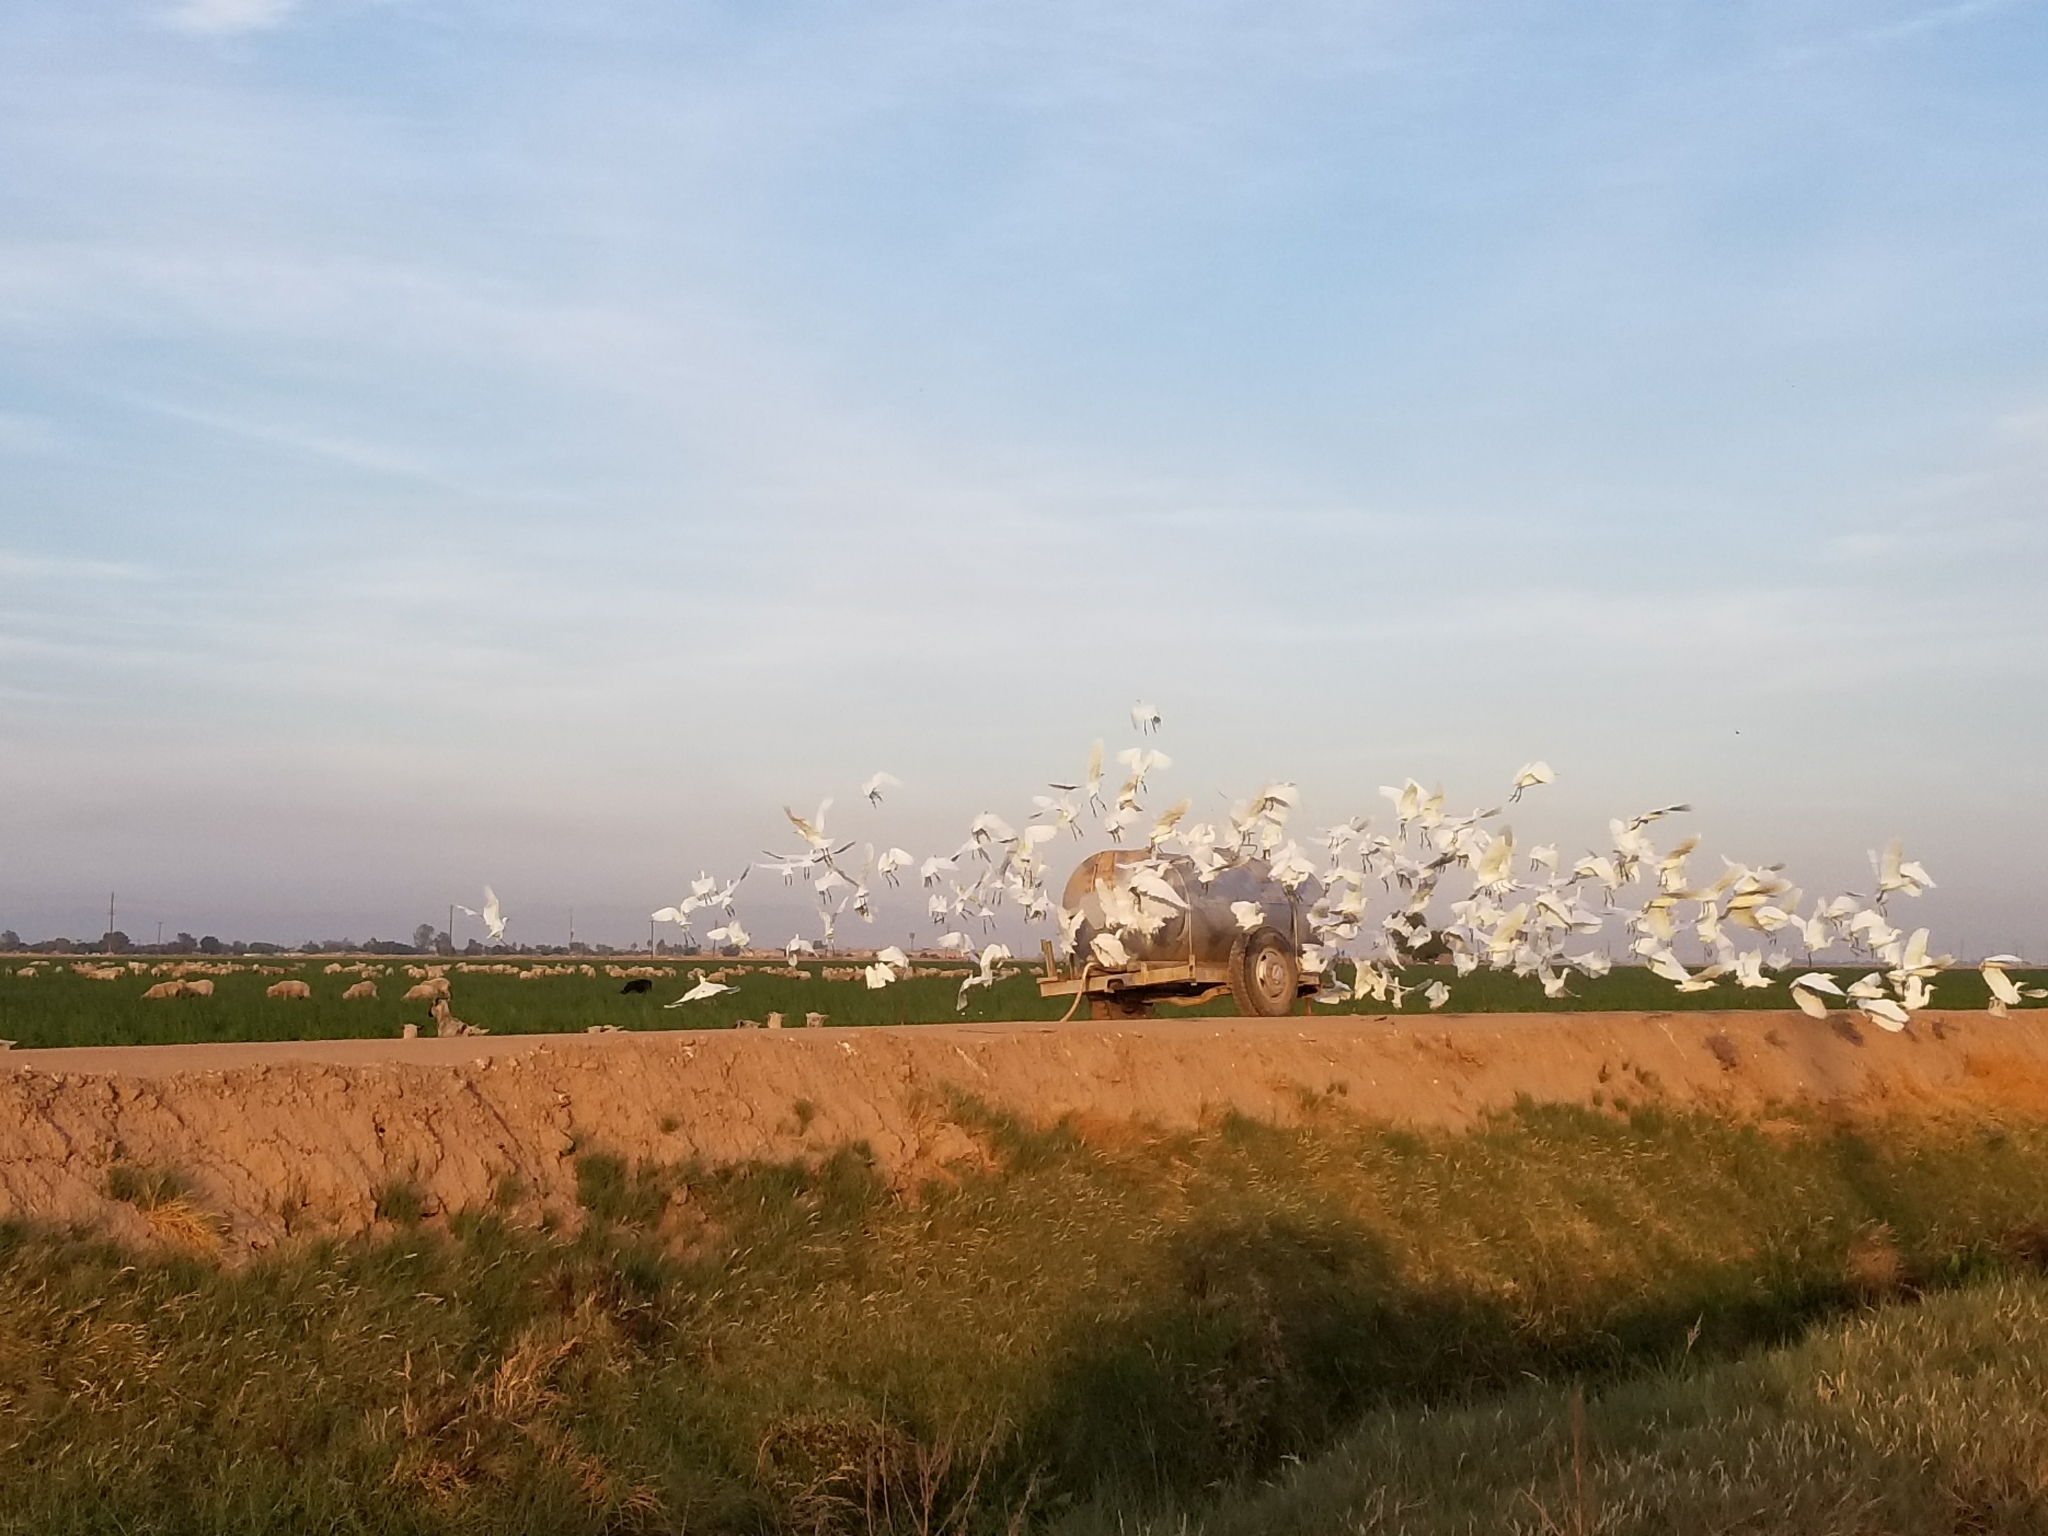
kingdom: Animalia
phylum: Chordata
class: Aves
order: Pelecaniformes
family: Ardeidae
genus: Bubulcus
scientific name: Bubulcus ibis
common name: Cattle egret
